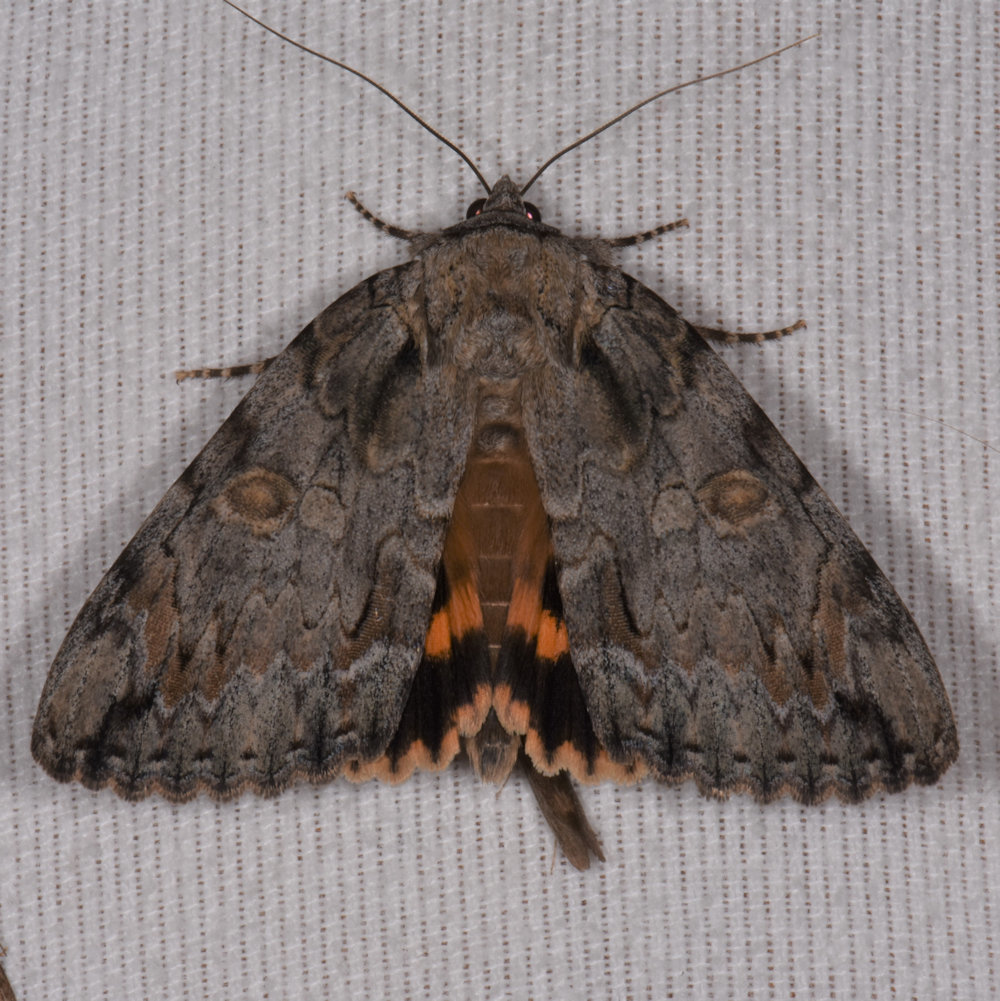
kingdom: Animalia
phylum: Arthropoda
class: Insecta
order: Lepidoptera
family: Erebidae
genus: Catocala
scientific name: Catocala neogama
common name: Bride underwing
